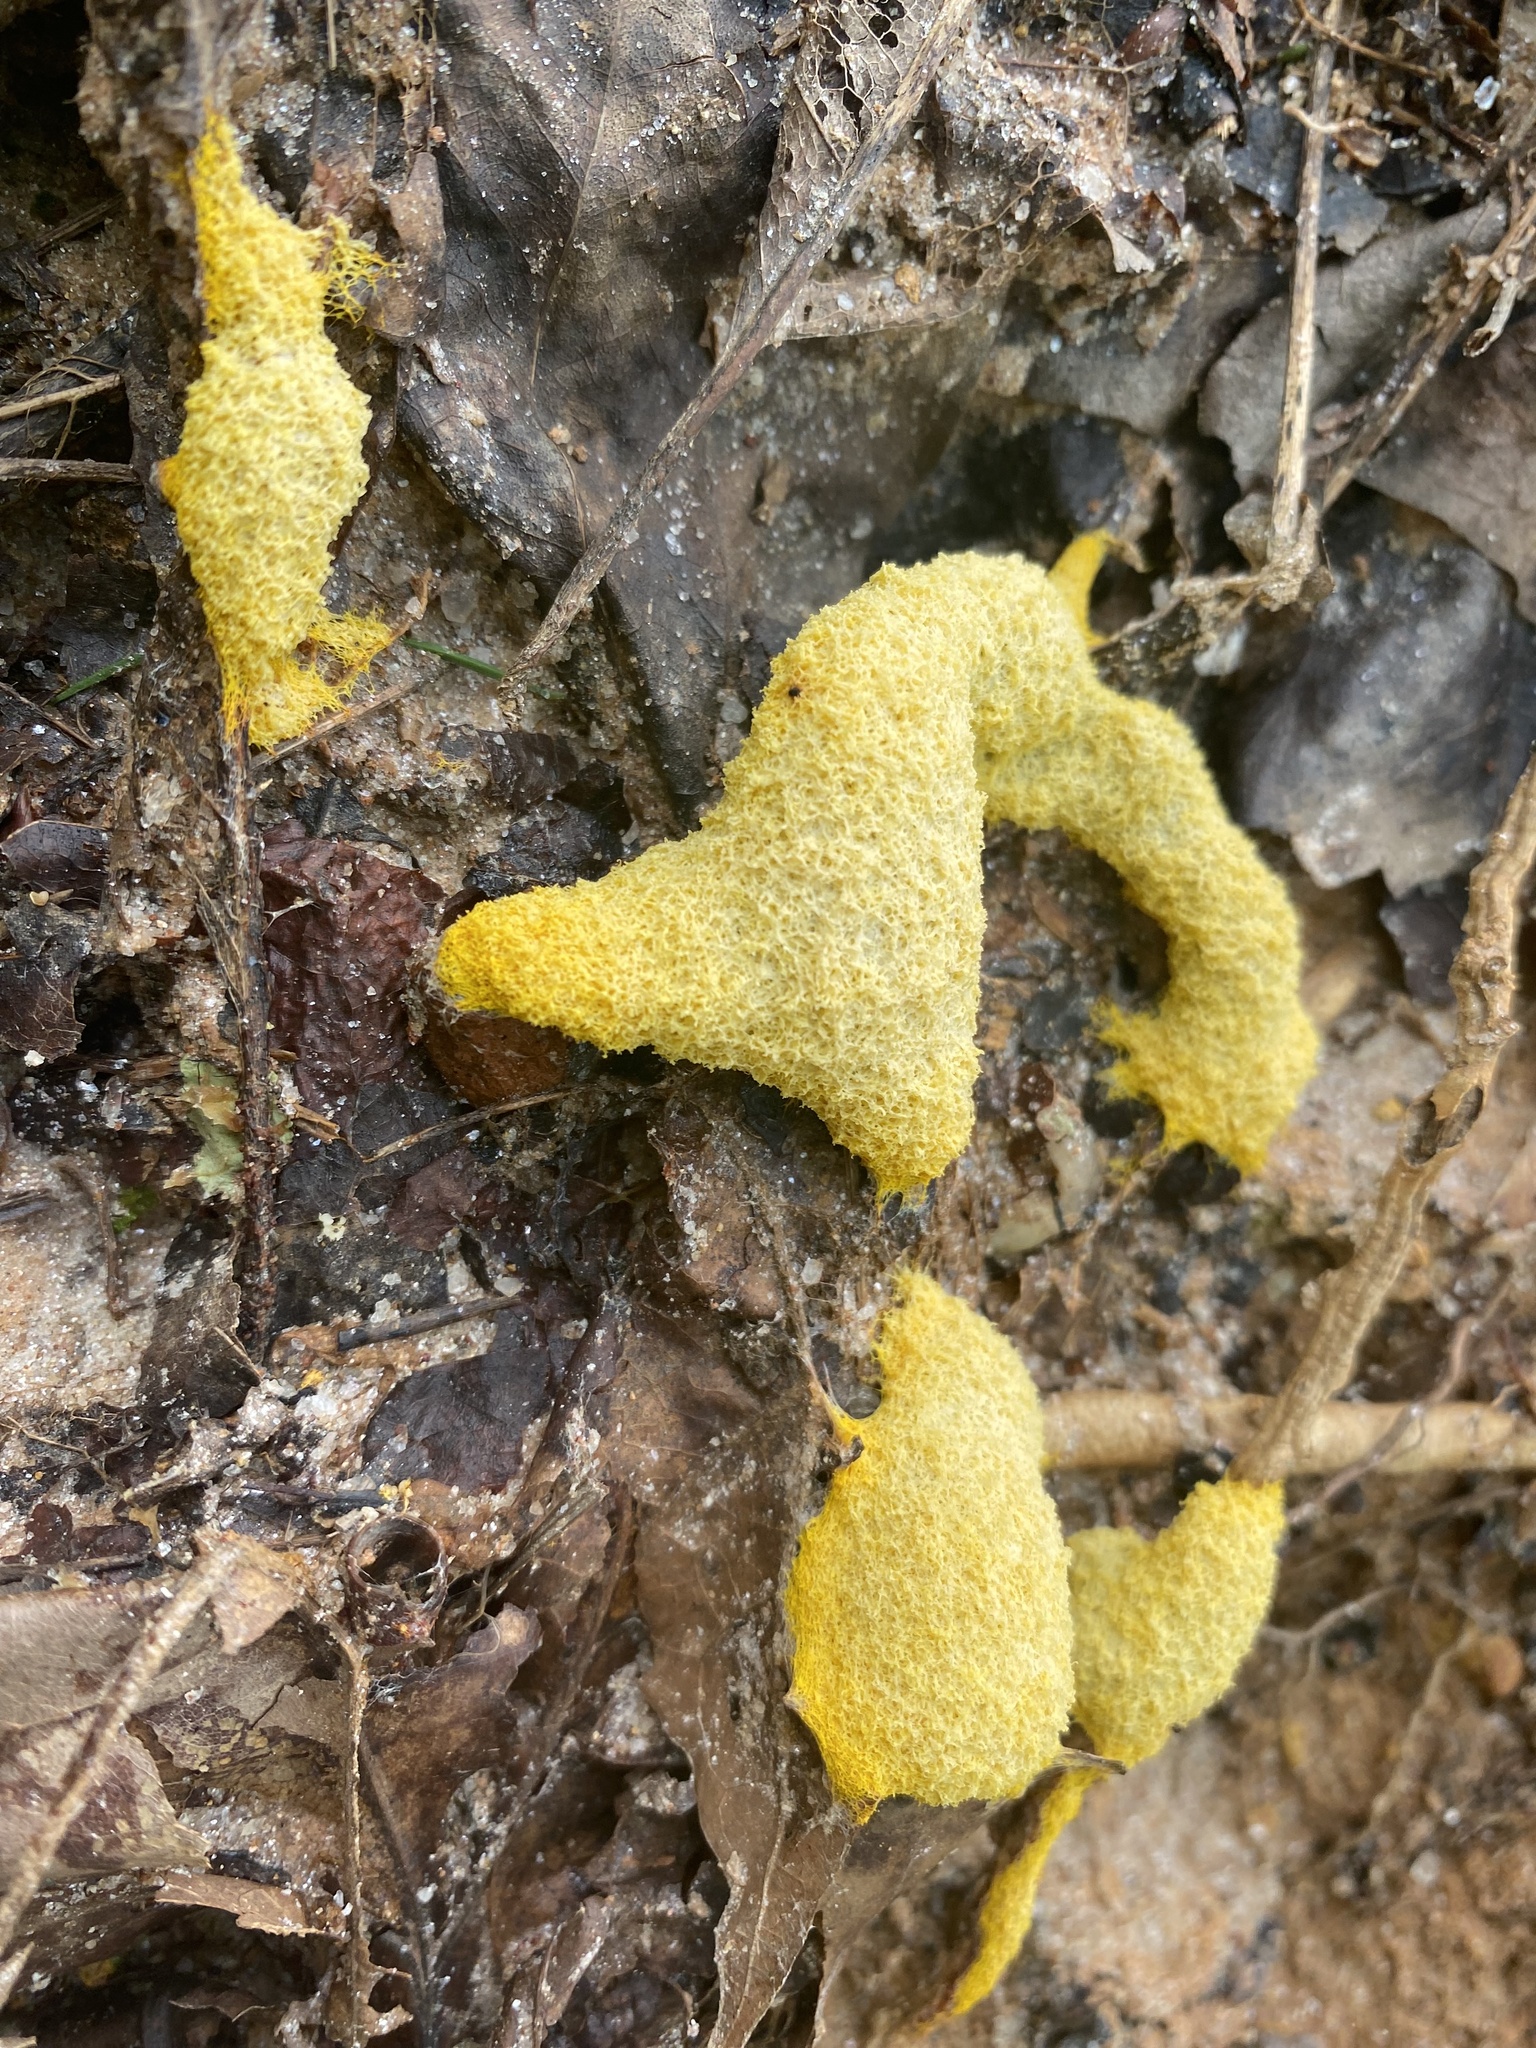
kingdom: Protozoa
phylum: Mycetozoa
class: Myxomycetes
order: Physarales
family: Physaraceae
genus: Fuligo
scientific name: Fuligo septica
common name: Dog vomit slime mold
